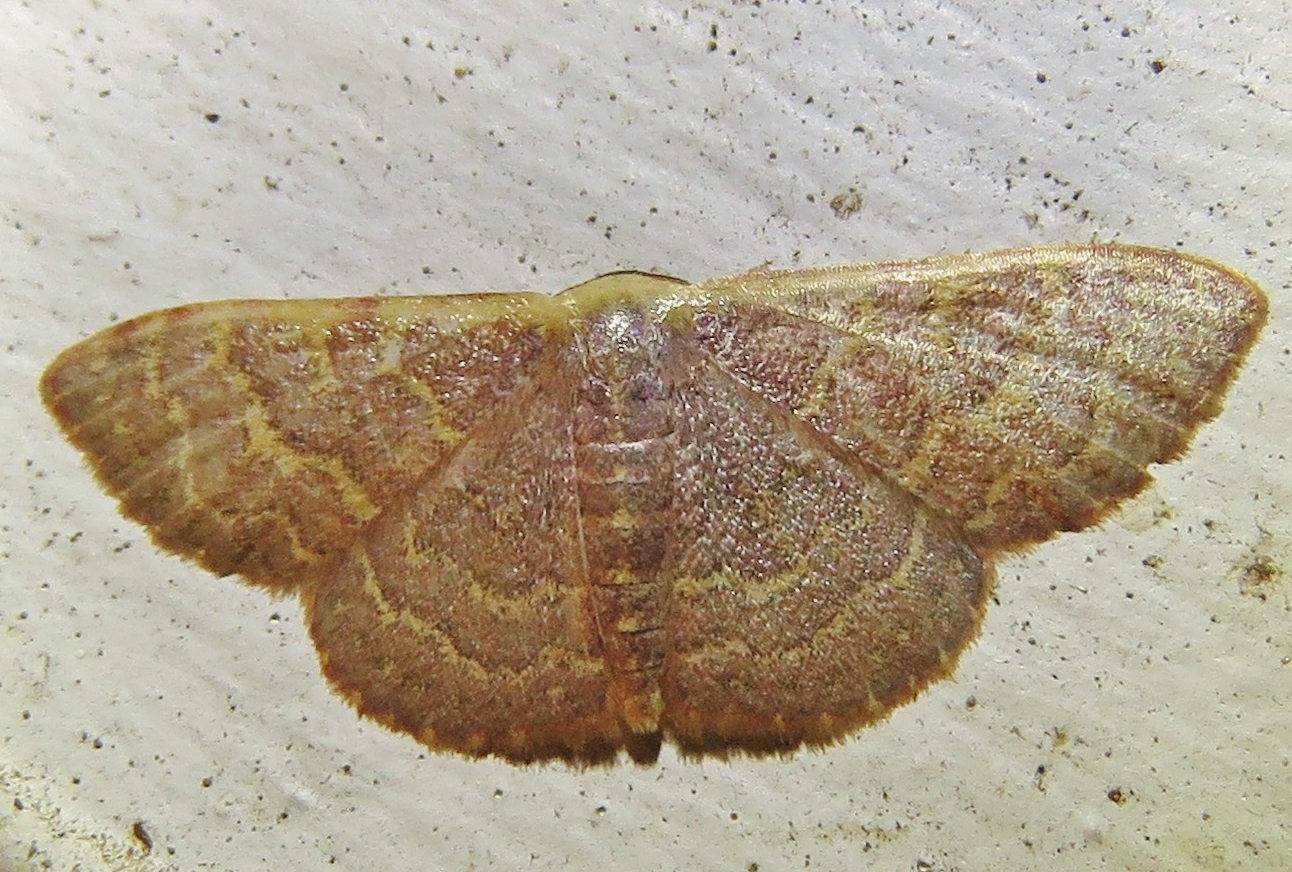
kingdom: Animalia
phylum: Arthropoda
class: Insecta
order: Lepidoptera
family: Geometridae
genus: Leptostales
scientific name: Leptostales pannaria
